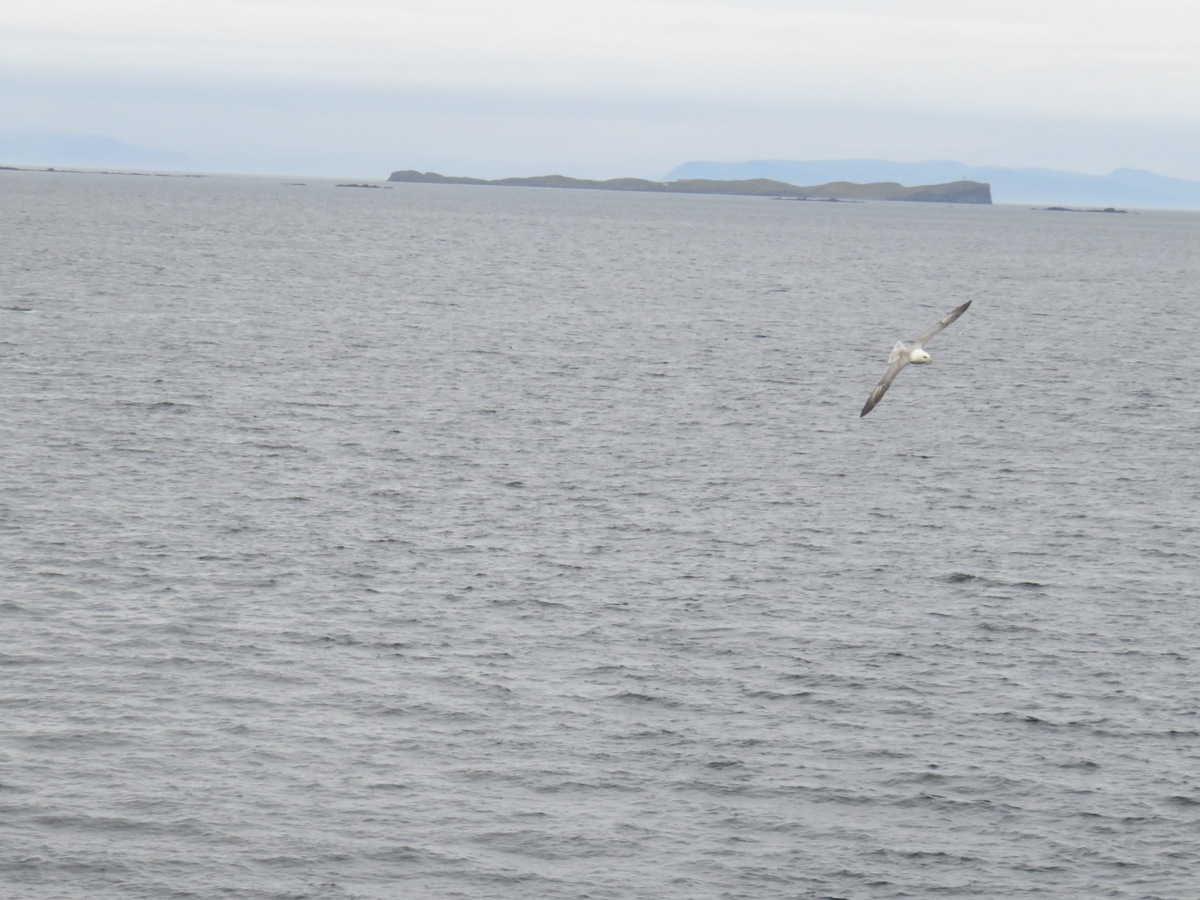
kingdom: Animalia
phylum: Chordata
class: Aves
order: Procellariiformes
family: Procellariidae
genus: Fulmarus
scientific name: Fulmarus glacialis
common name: Northern fulmar
